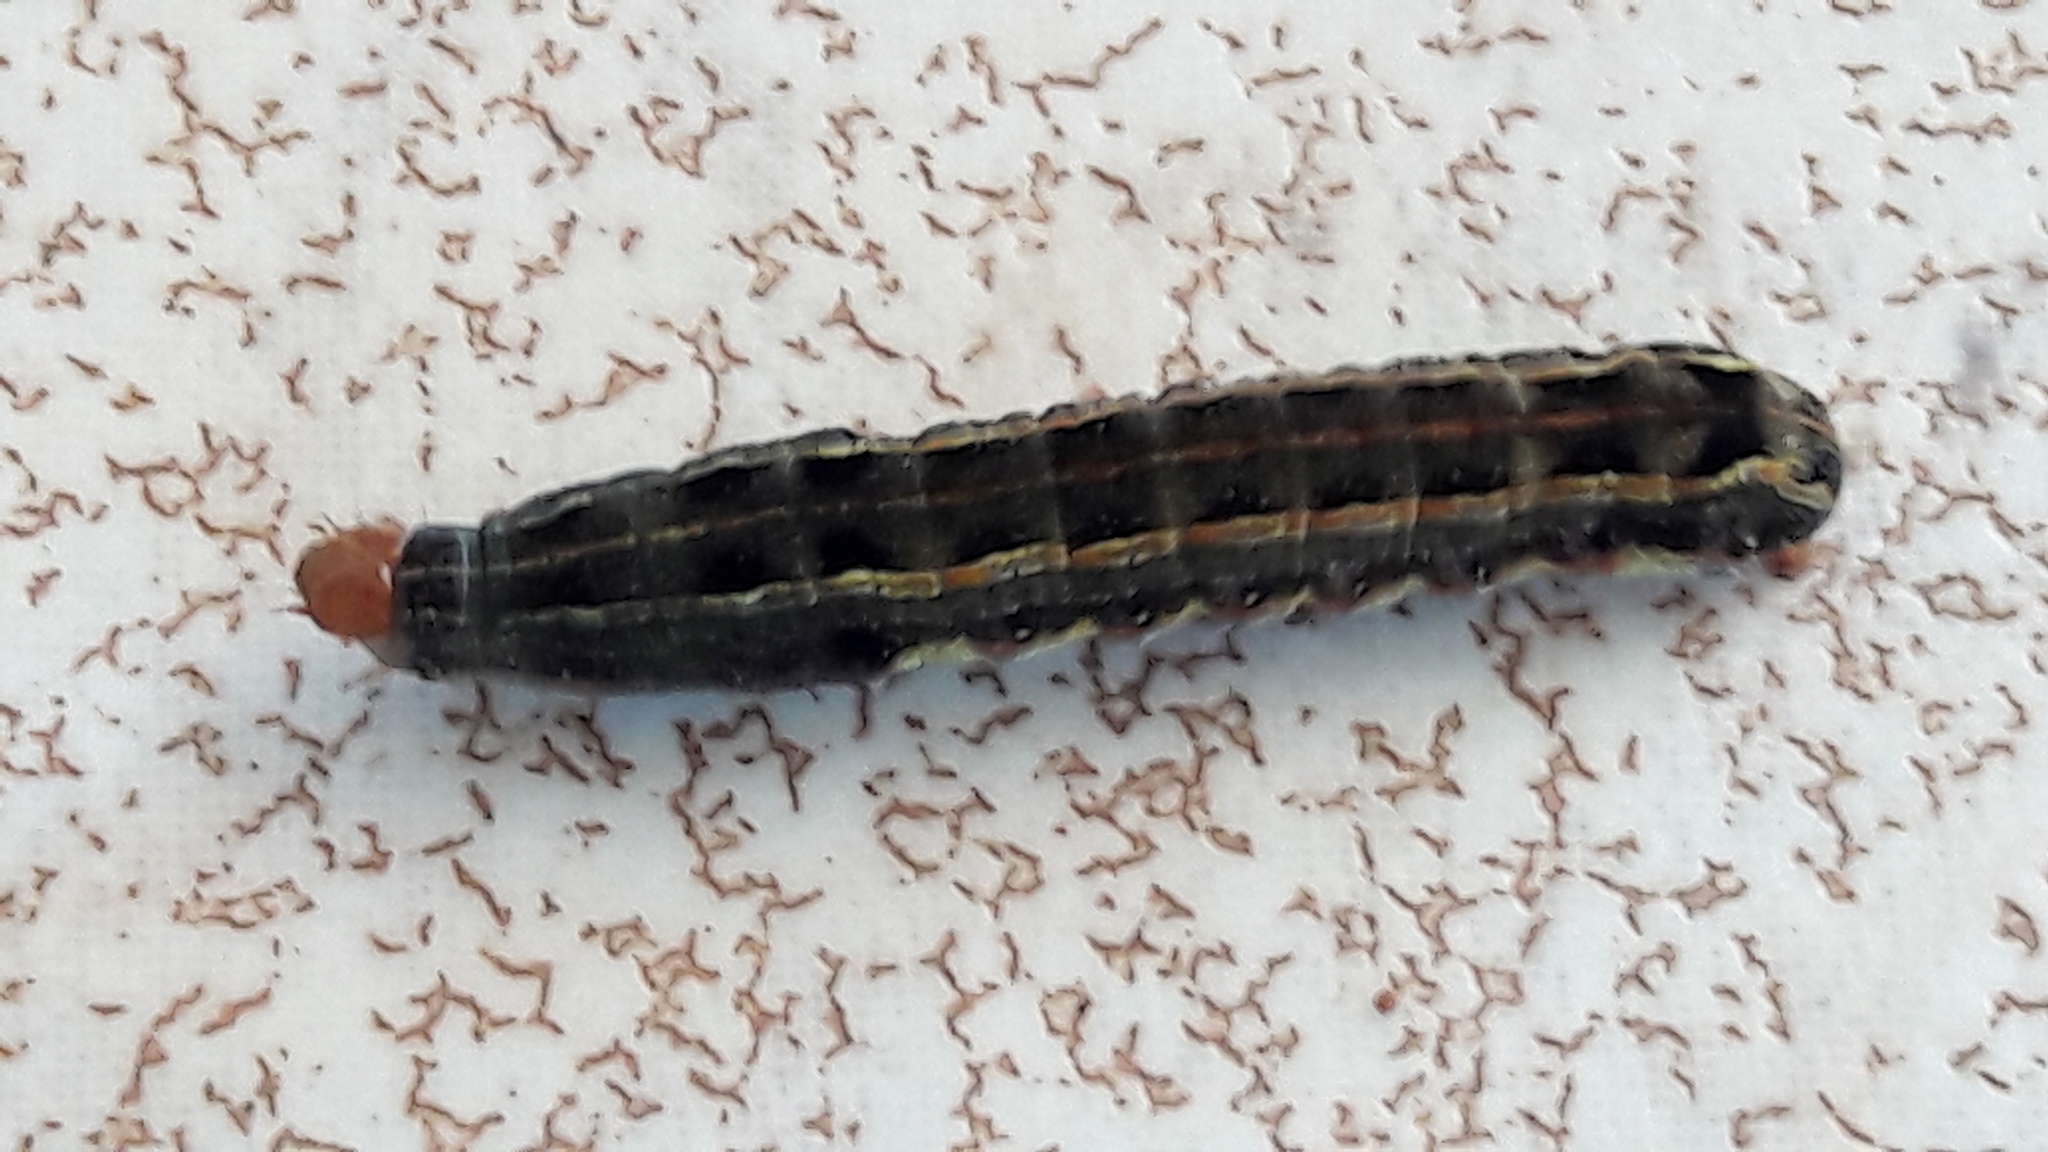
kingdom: Animalia
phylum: Arthropoda
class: Insecta
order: Lepidoptera
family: Noctuidae
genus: Spodoptera
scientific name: Spodoptera eridania
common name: Southern army worm
